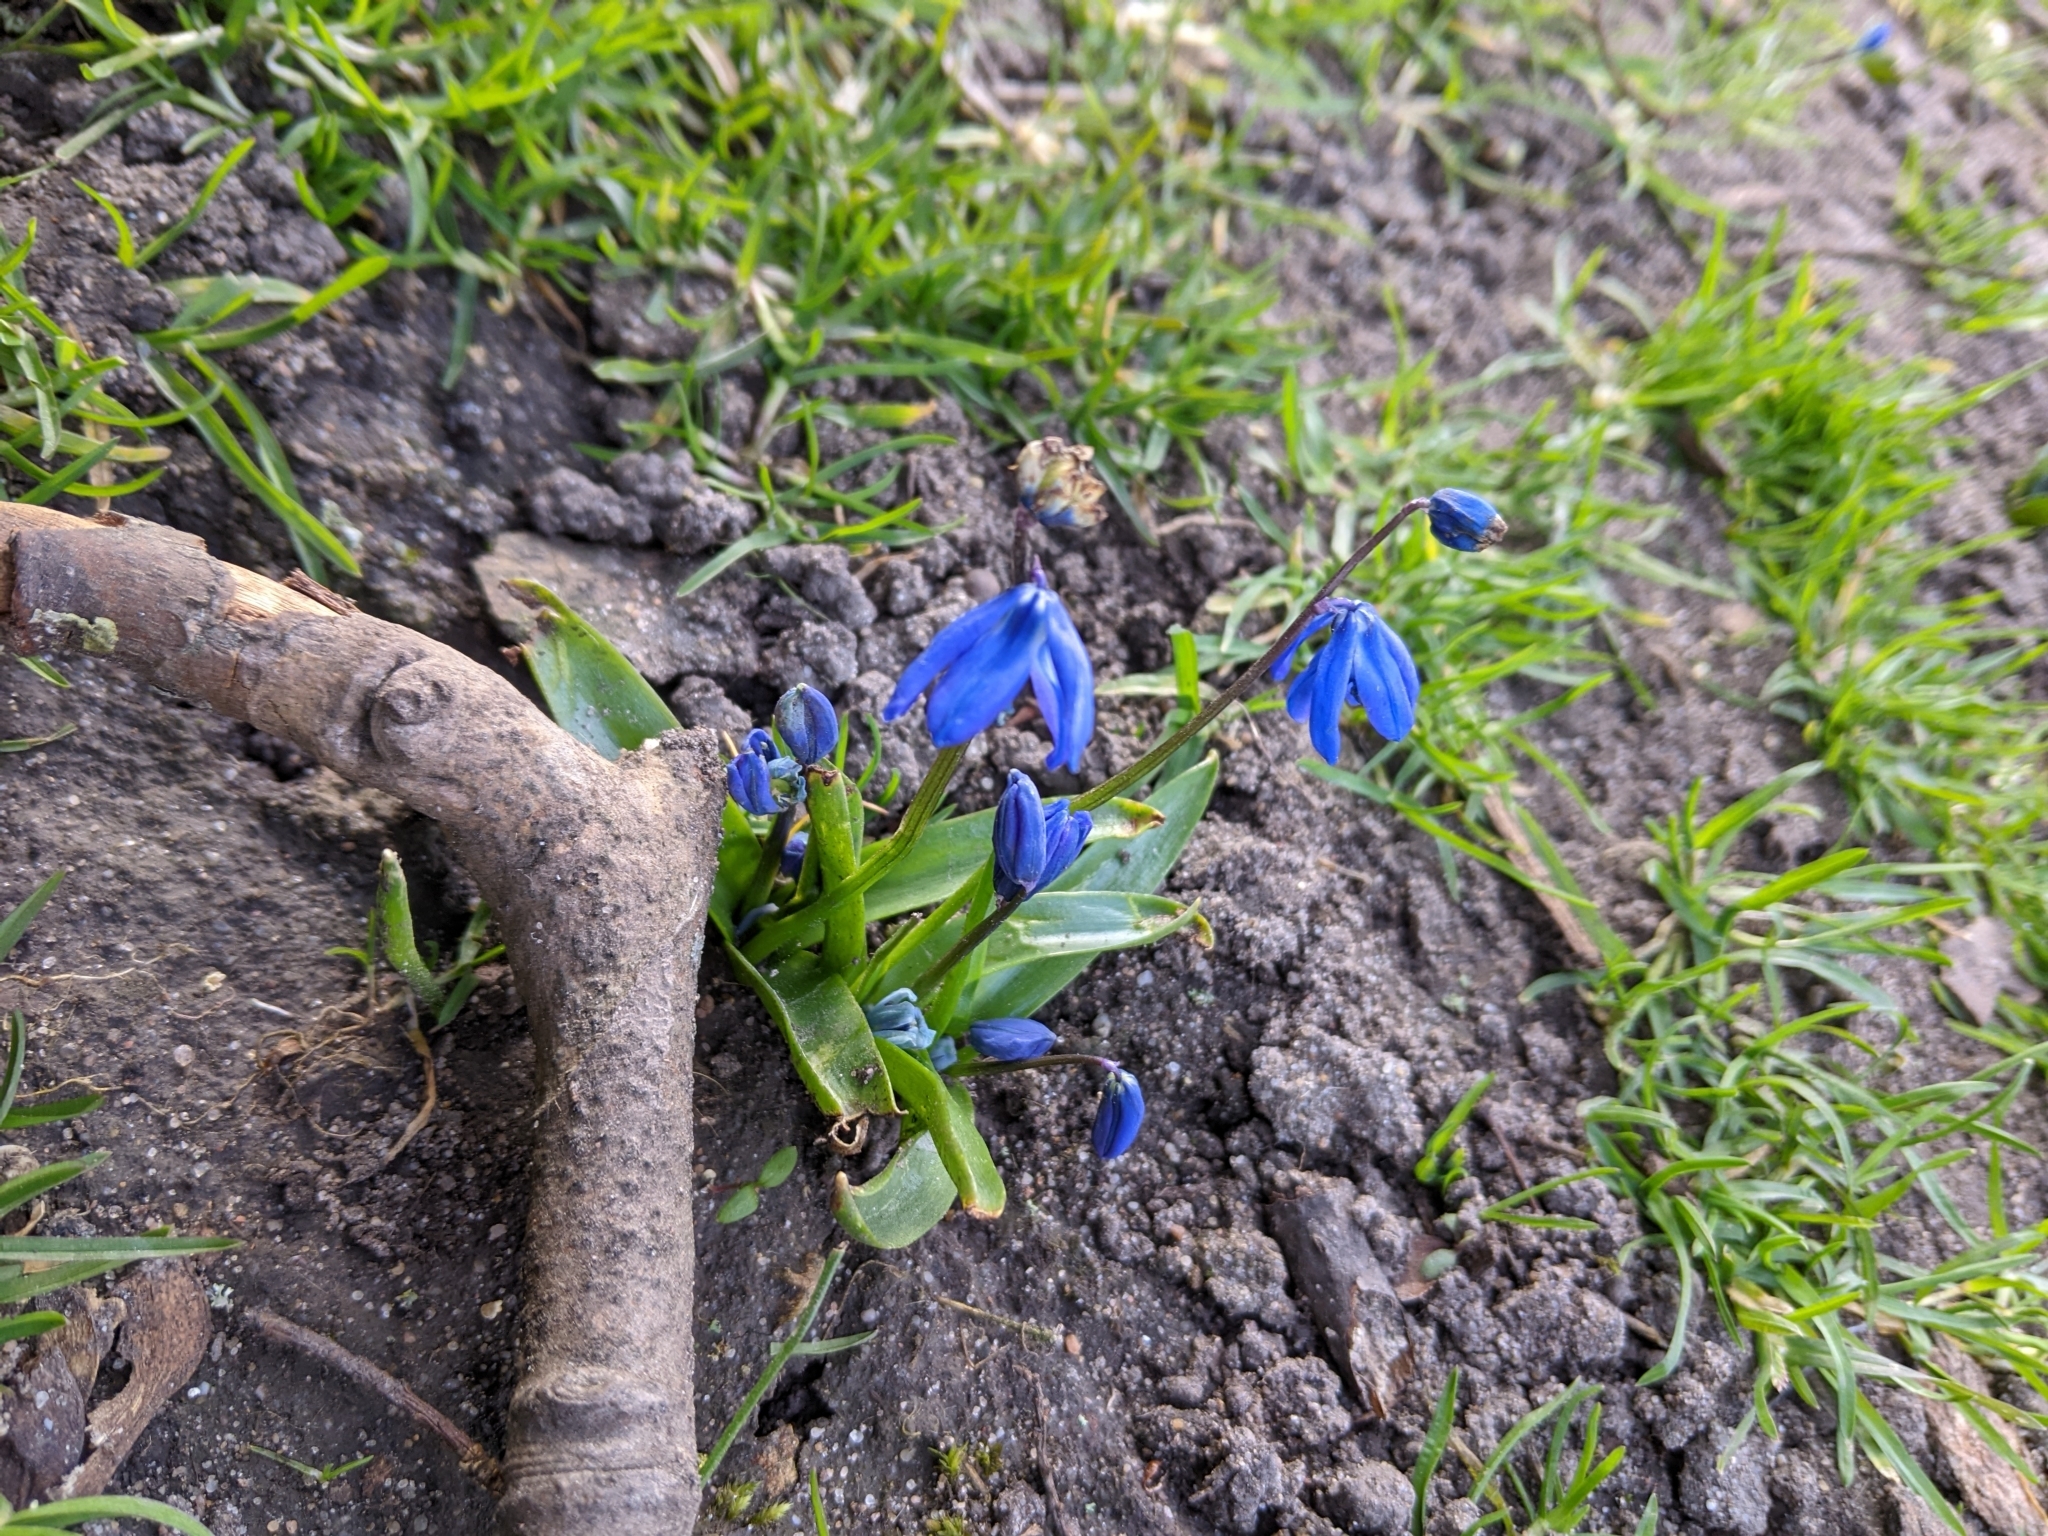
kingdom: Plantae
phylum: Tracheophyta
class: Liliopsida
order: Asparagales
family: Asparagaceae
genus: Scilla
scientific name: Scilla siberica
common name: Siberian squill
